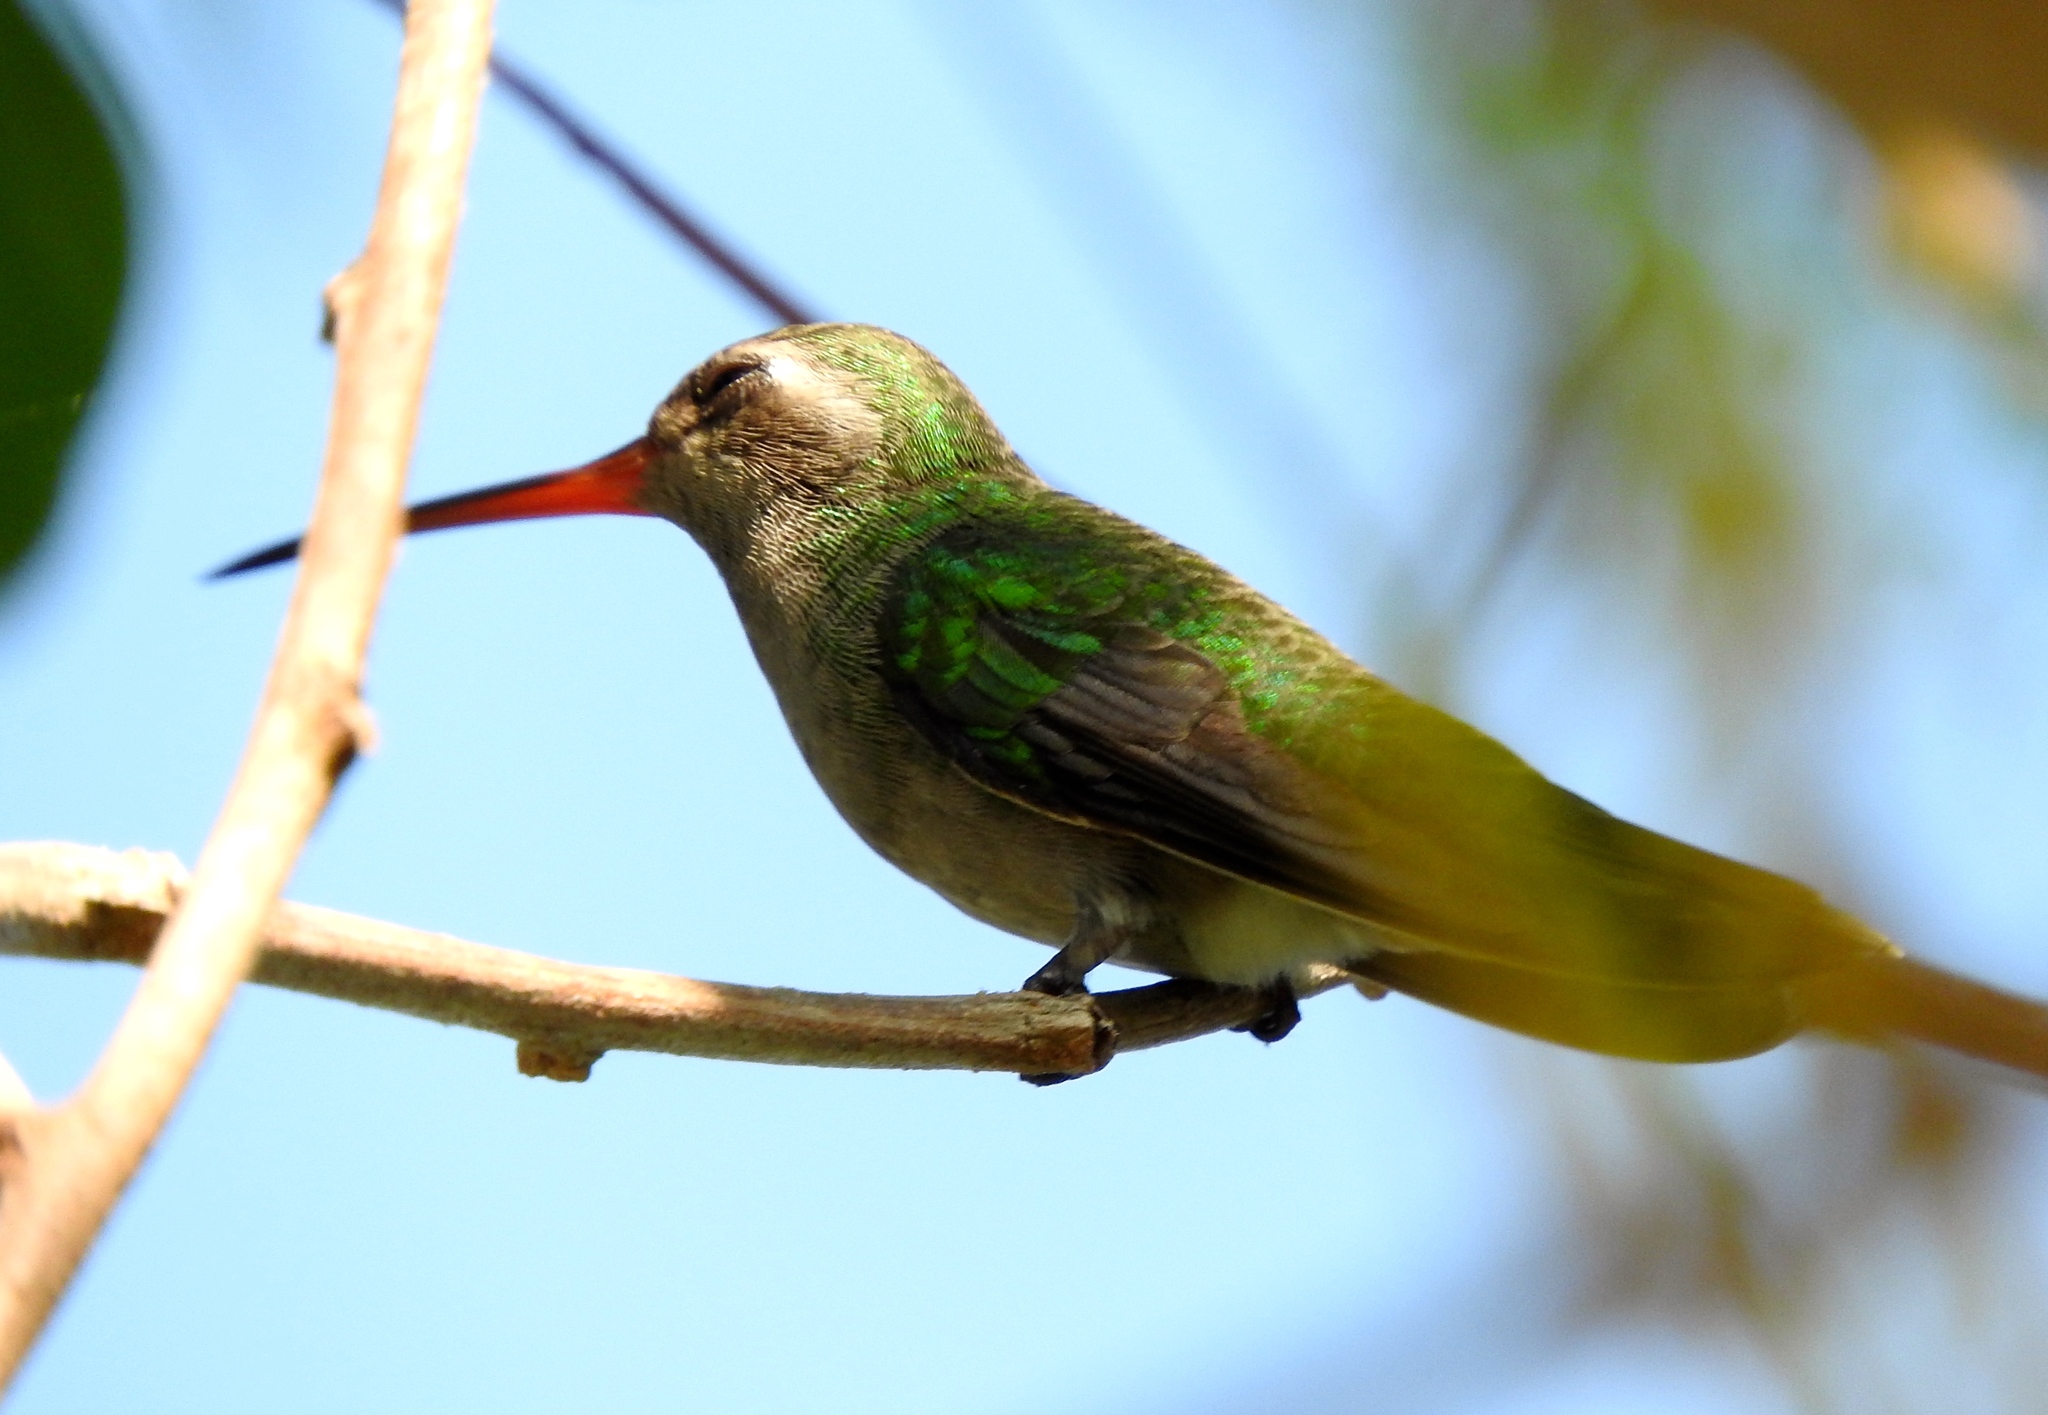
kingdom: Animalia
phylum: Chordata
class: Aves
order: Apodiformes
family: Trochilidae
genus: Cynanthus
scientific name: Cynanthus latirostris
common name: Broad-billed hummingbird
